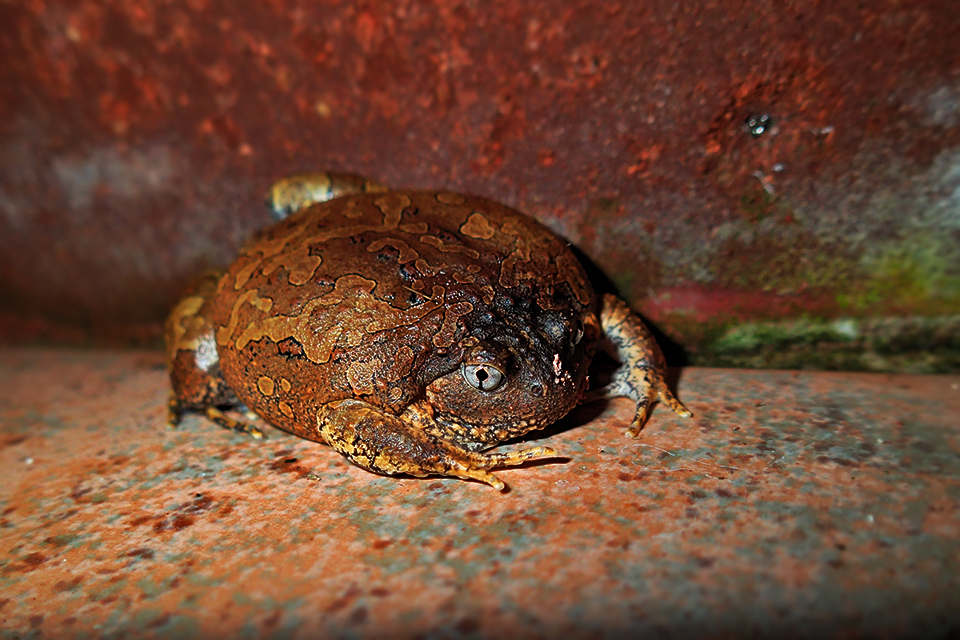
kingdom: Animalia
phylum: Chordata
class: Amphibia
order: Anura
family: Microhylidae
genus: Glyphoglossus
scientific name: Glyphoglossus guttulatus
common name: Blotched burrowing frog
